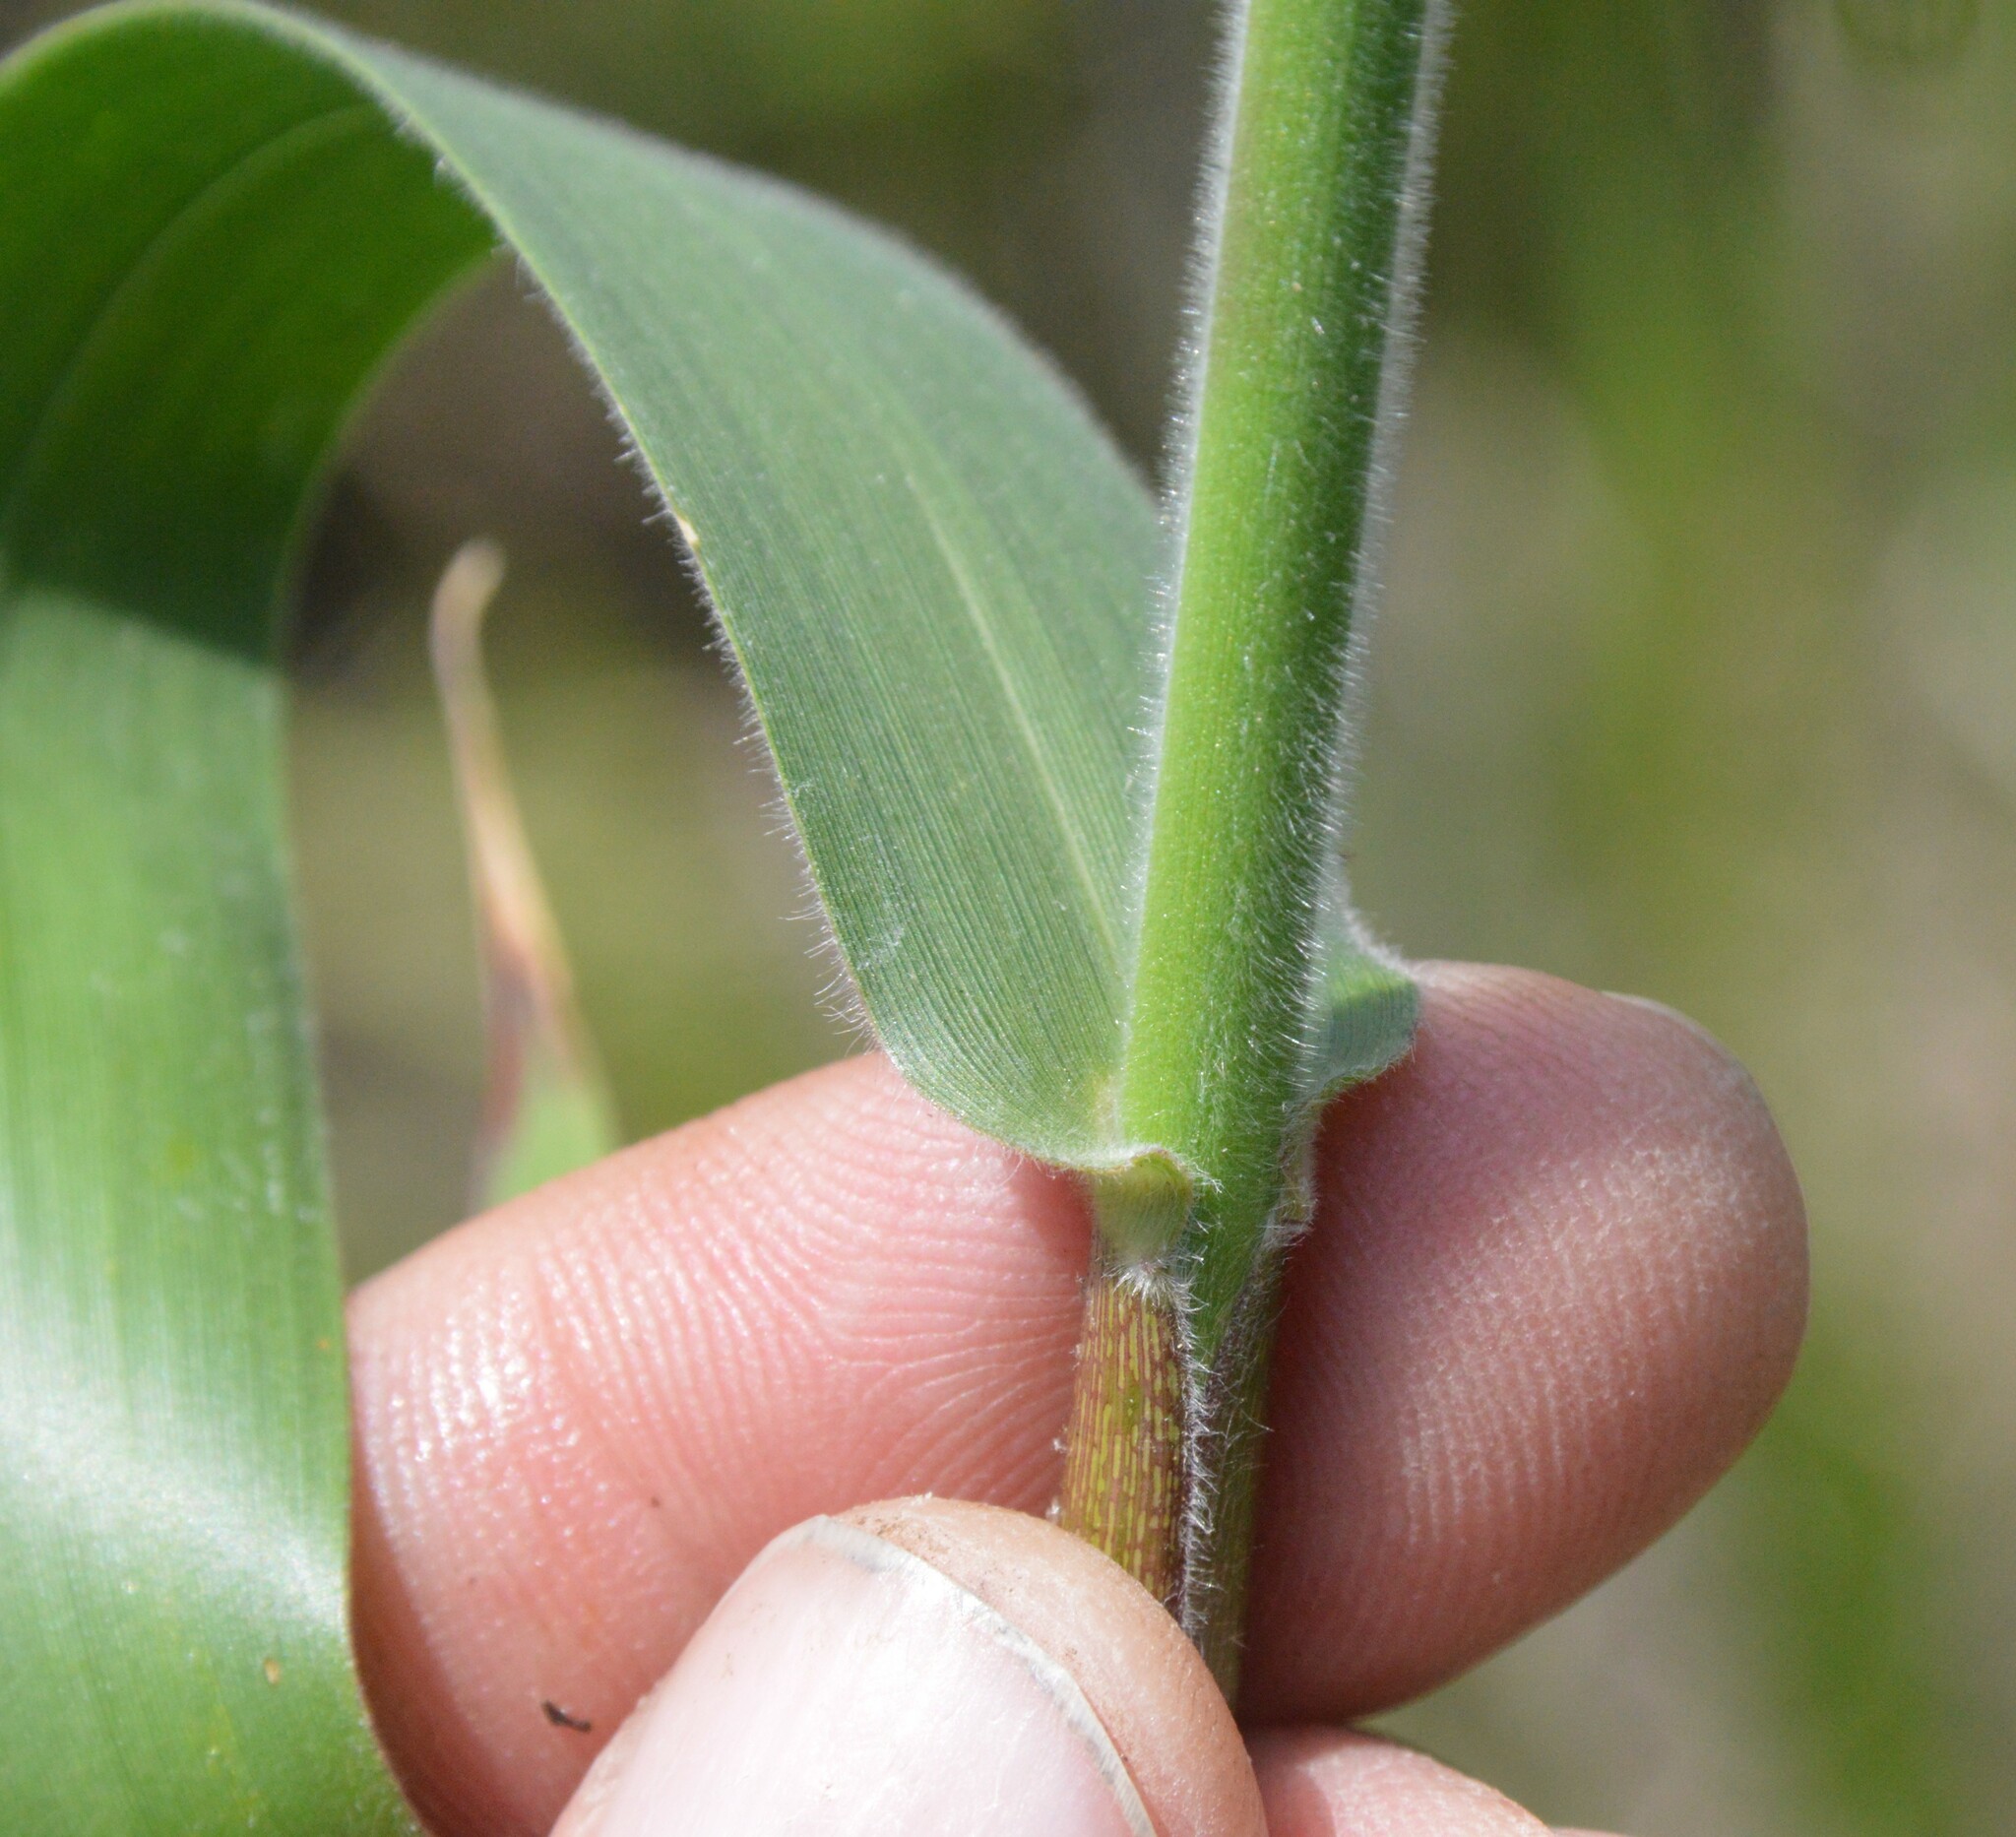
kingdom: Plantae
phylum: Tracheophyta
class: Liliopsida
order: Poales
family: Poaceae
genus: Dichanthelium
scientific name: Dichanthelium scoparium
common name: Velvety panic grass
